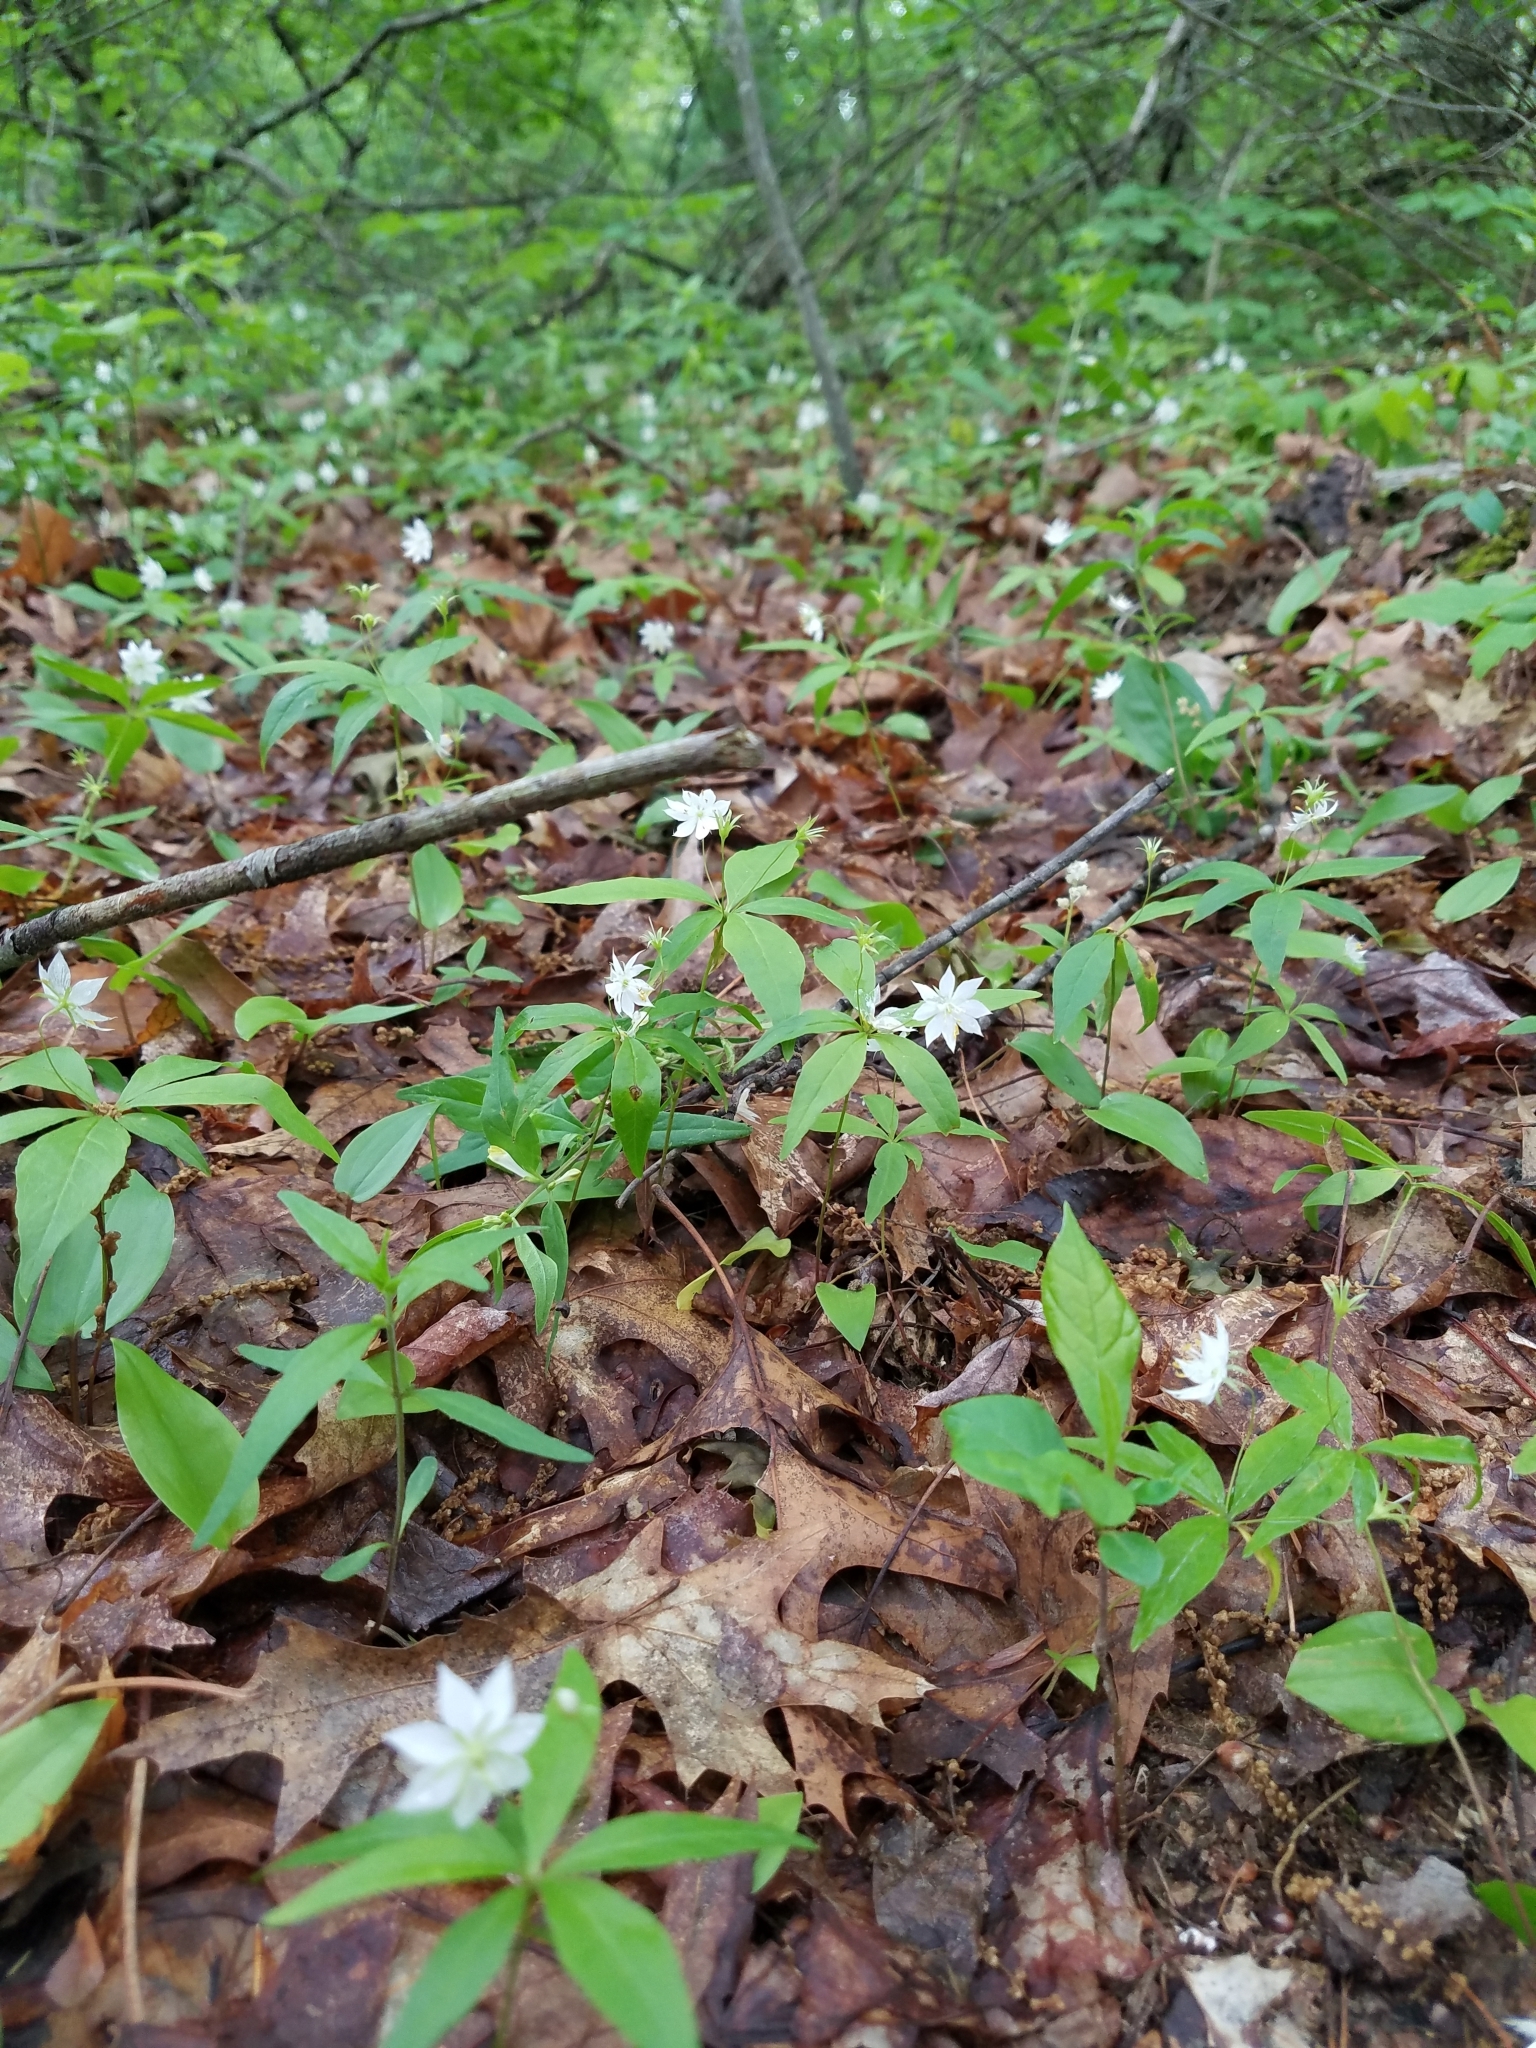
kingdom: Plantae
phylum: Tracheophyta
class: Magnoliopsida
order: Ericales
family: Primulaceae
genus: Lysimachia
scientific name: Lysimachia borealis
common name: American starflower
